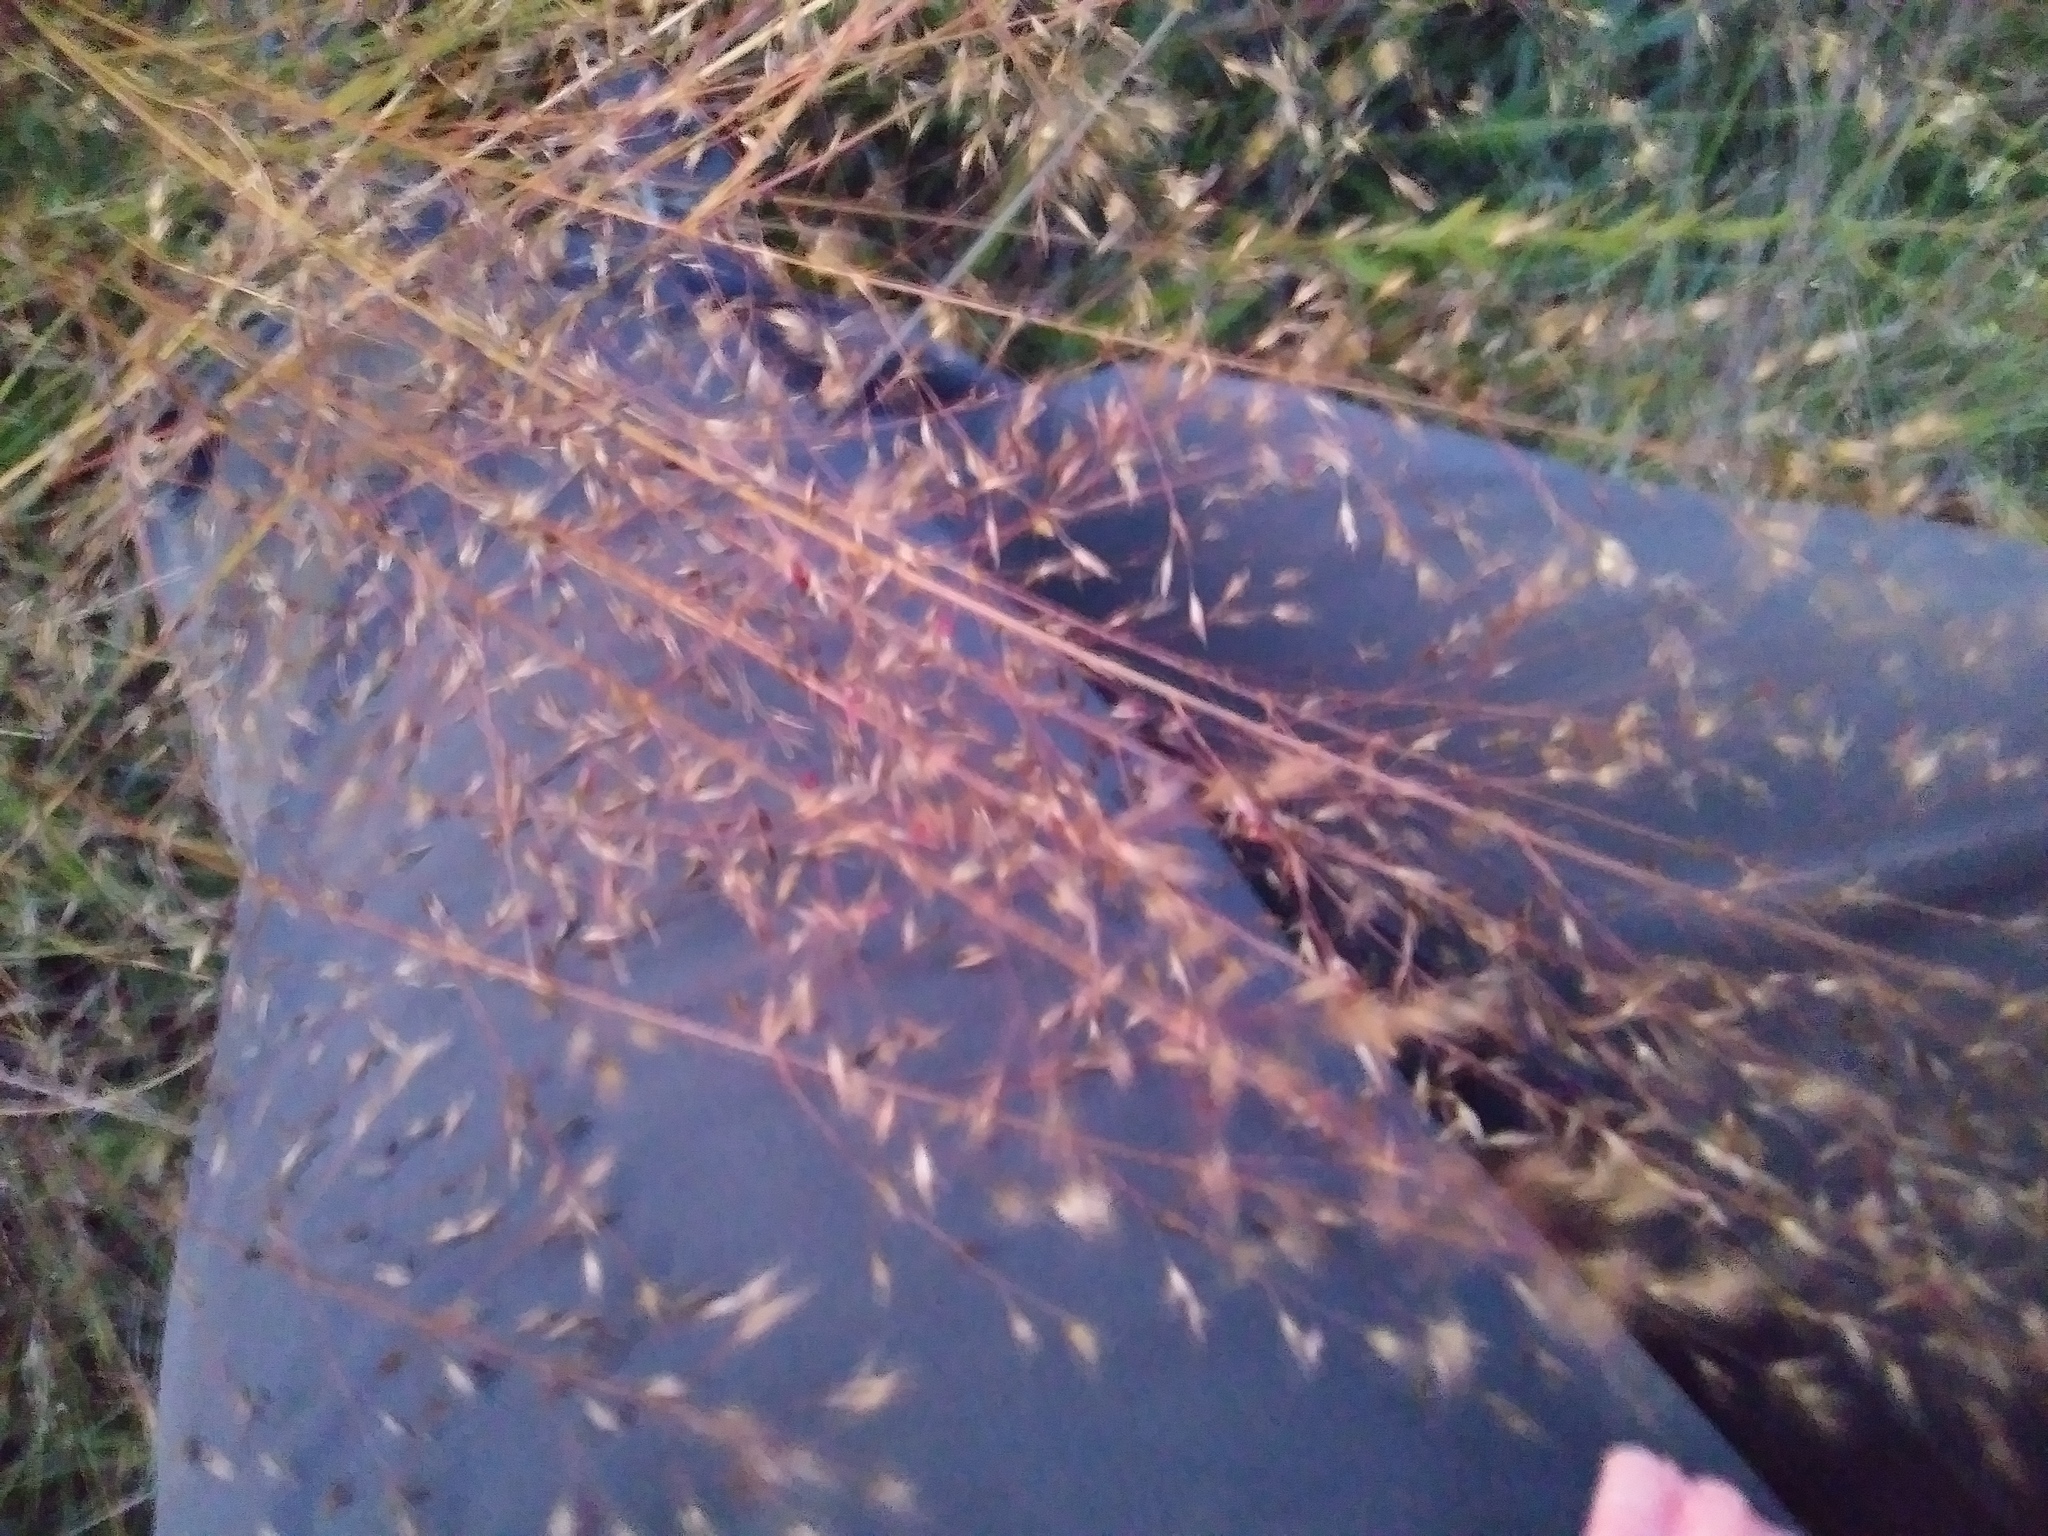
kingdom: Plantae
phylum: Tracheophyta
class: Liliopsida
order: Poales
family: Poaceae
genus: Sporobolus
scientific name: Sporobolus heterolepis
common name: Prairie dropseed
